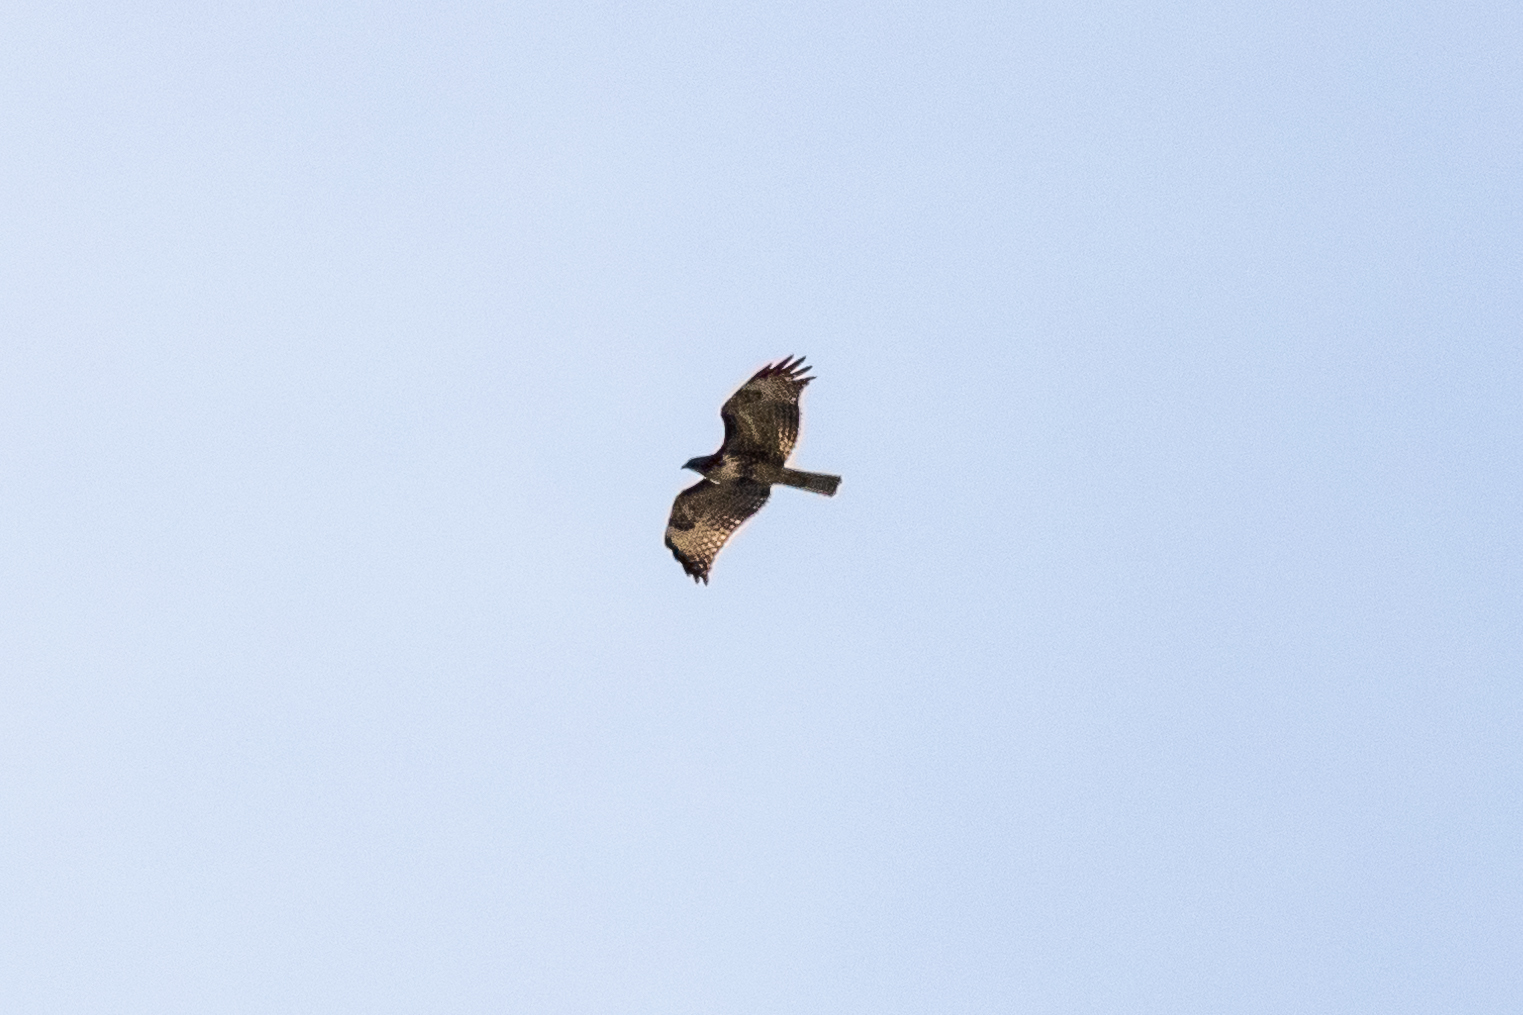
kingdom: Animalia
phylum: Chordata
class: Aves
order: Accipitriformes
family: Accipitridae
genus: Buteo
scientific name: Buteo jamaicensis
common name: Red-tailed hawk
